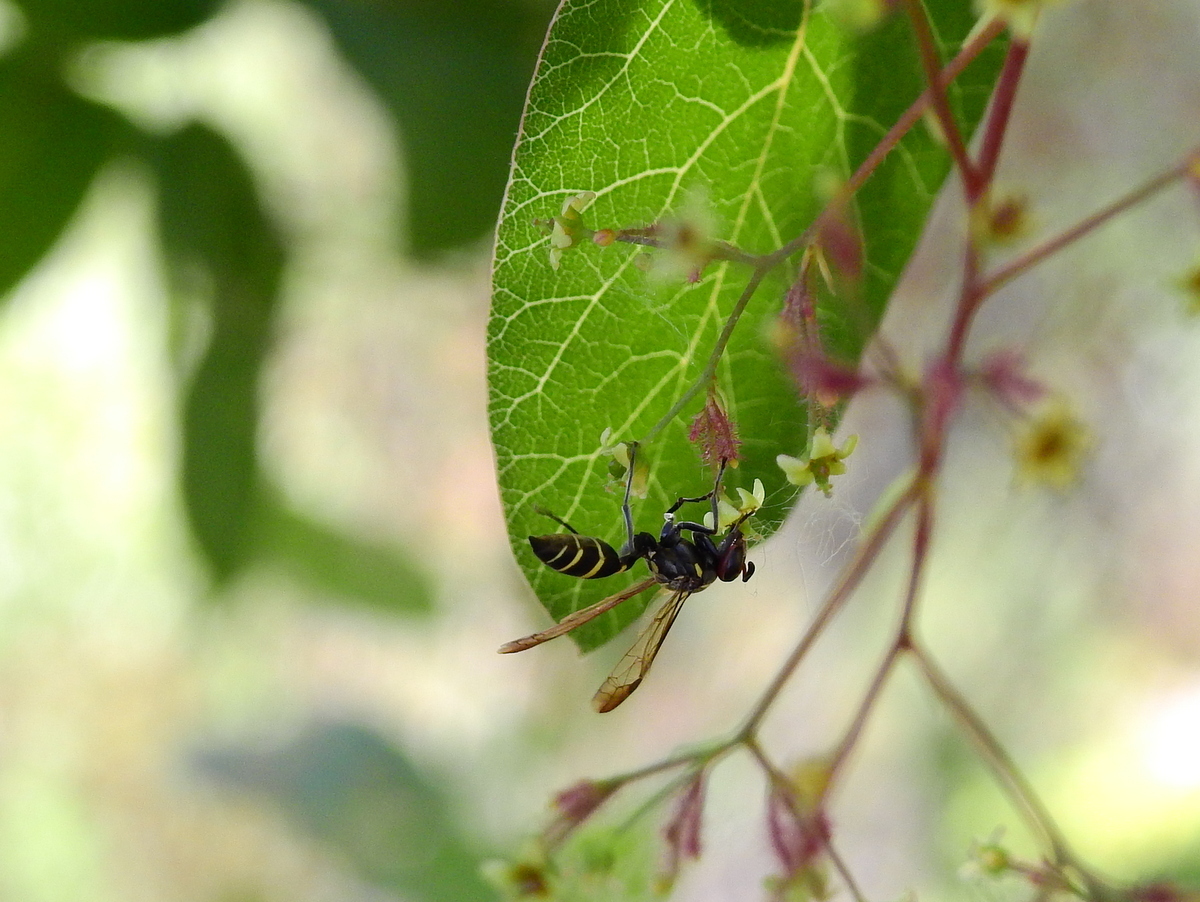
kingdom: Animalia
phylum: Arthropoda
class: Insecta
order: Hymenoptera
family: Eumenidae
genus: Polybia
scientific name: Polybia ruficeps
